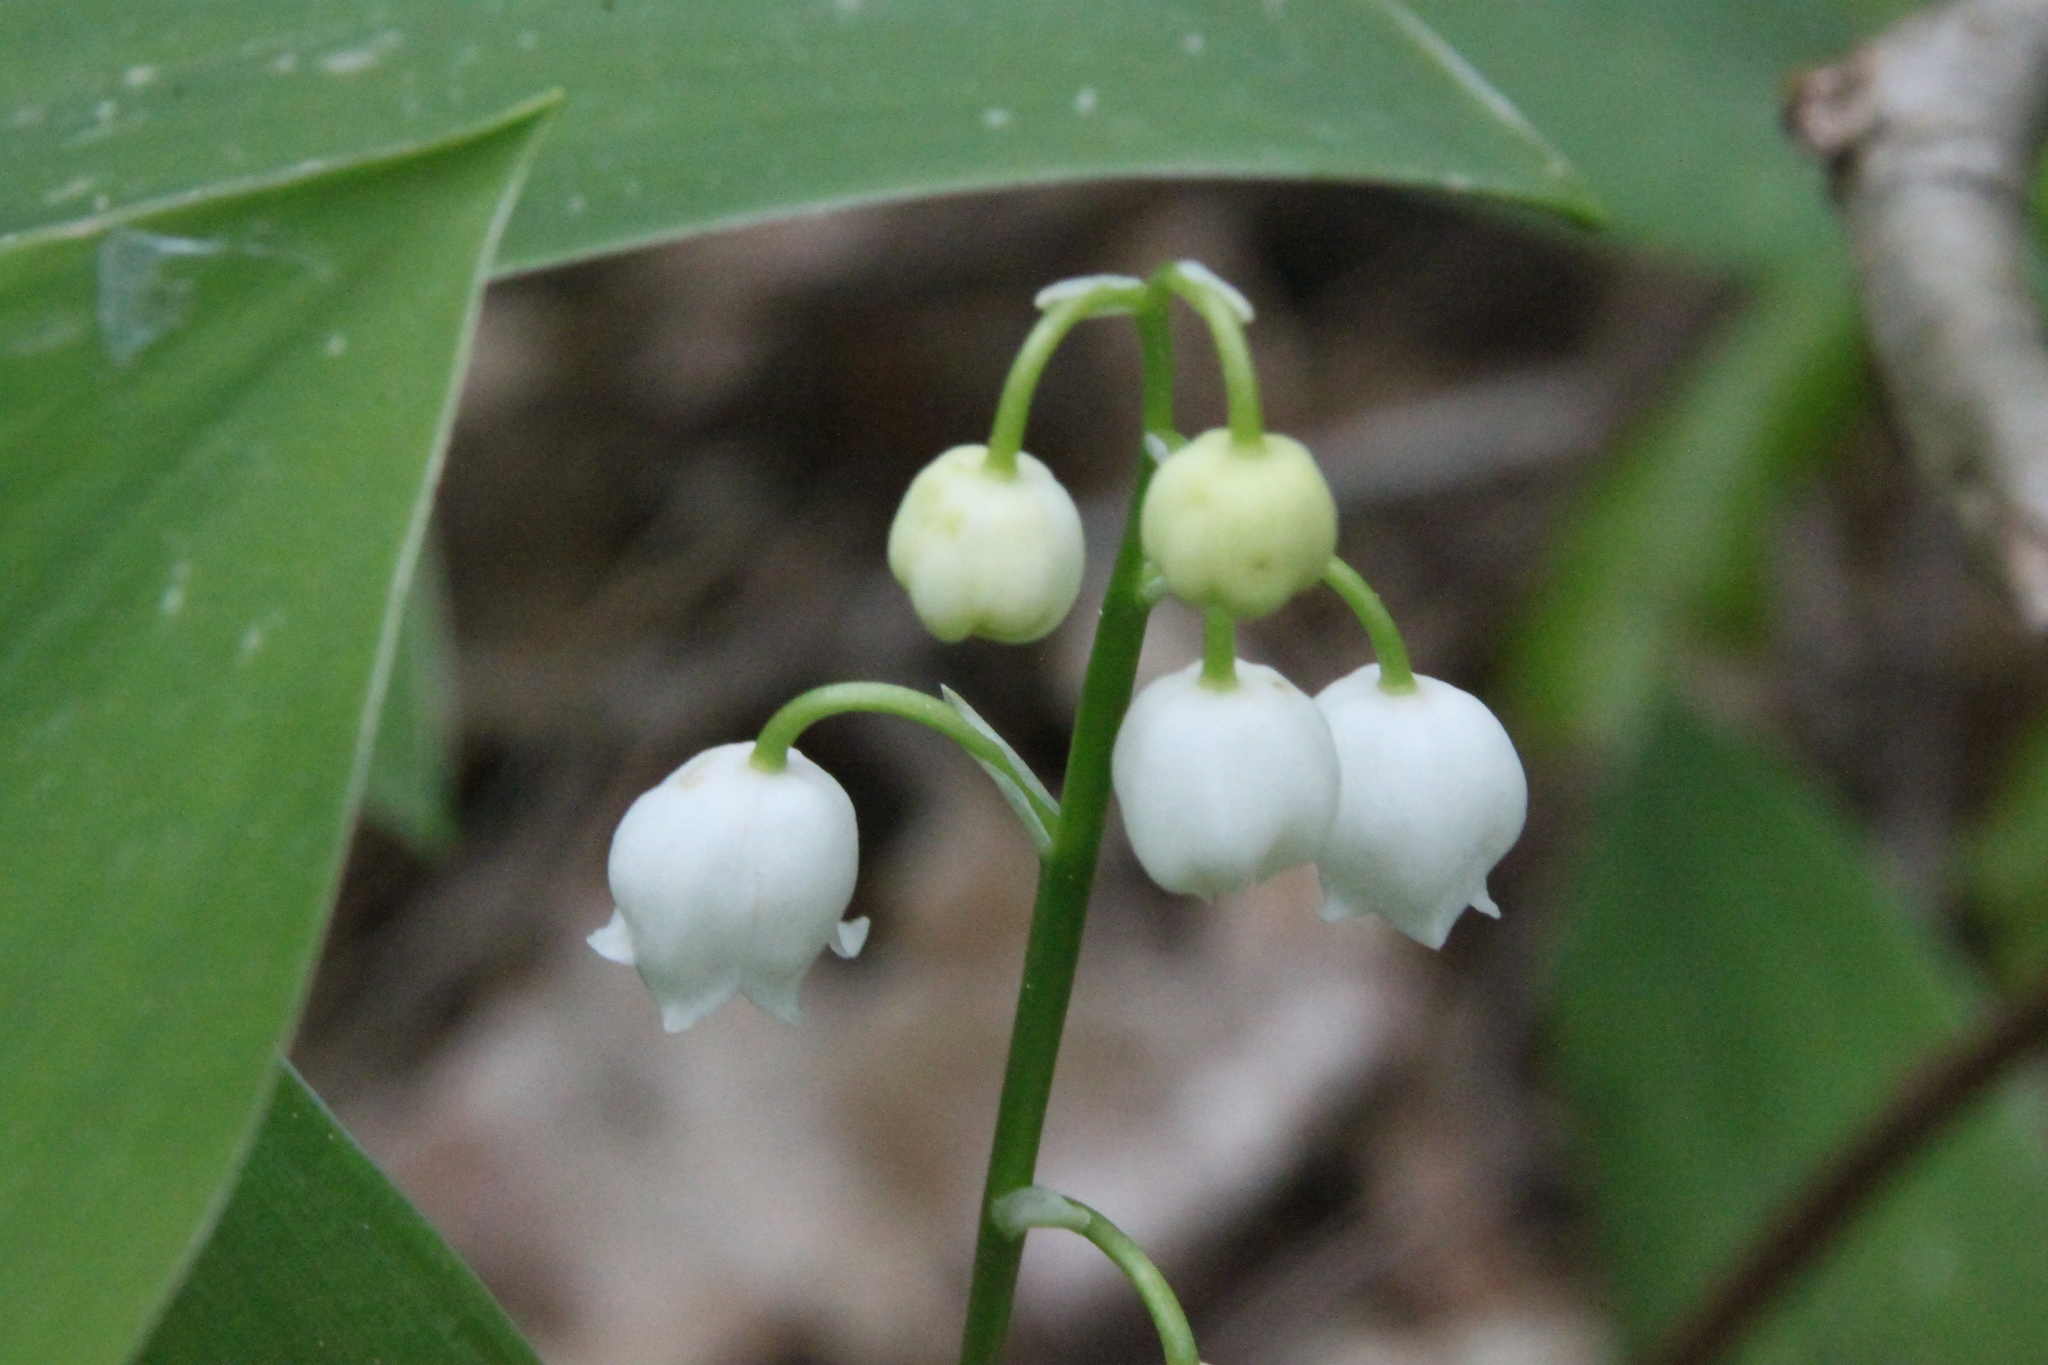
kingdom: Plantae
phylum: Tracheophyta
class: Liliopsida
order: Asparagales
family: Asparagaceae
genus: Convallaria
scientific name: Convallaria majalis
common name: Lily-of-the-valley
